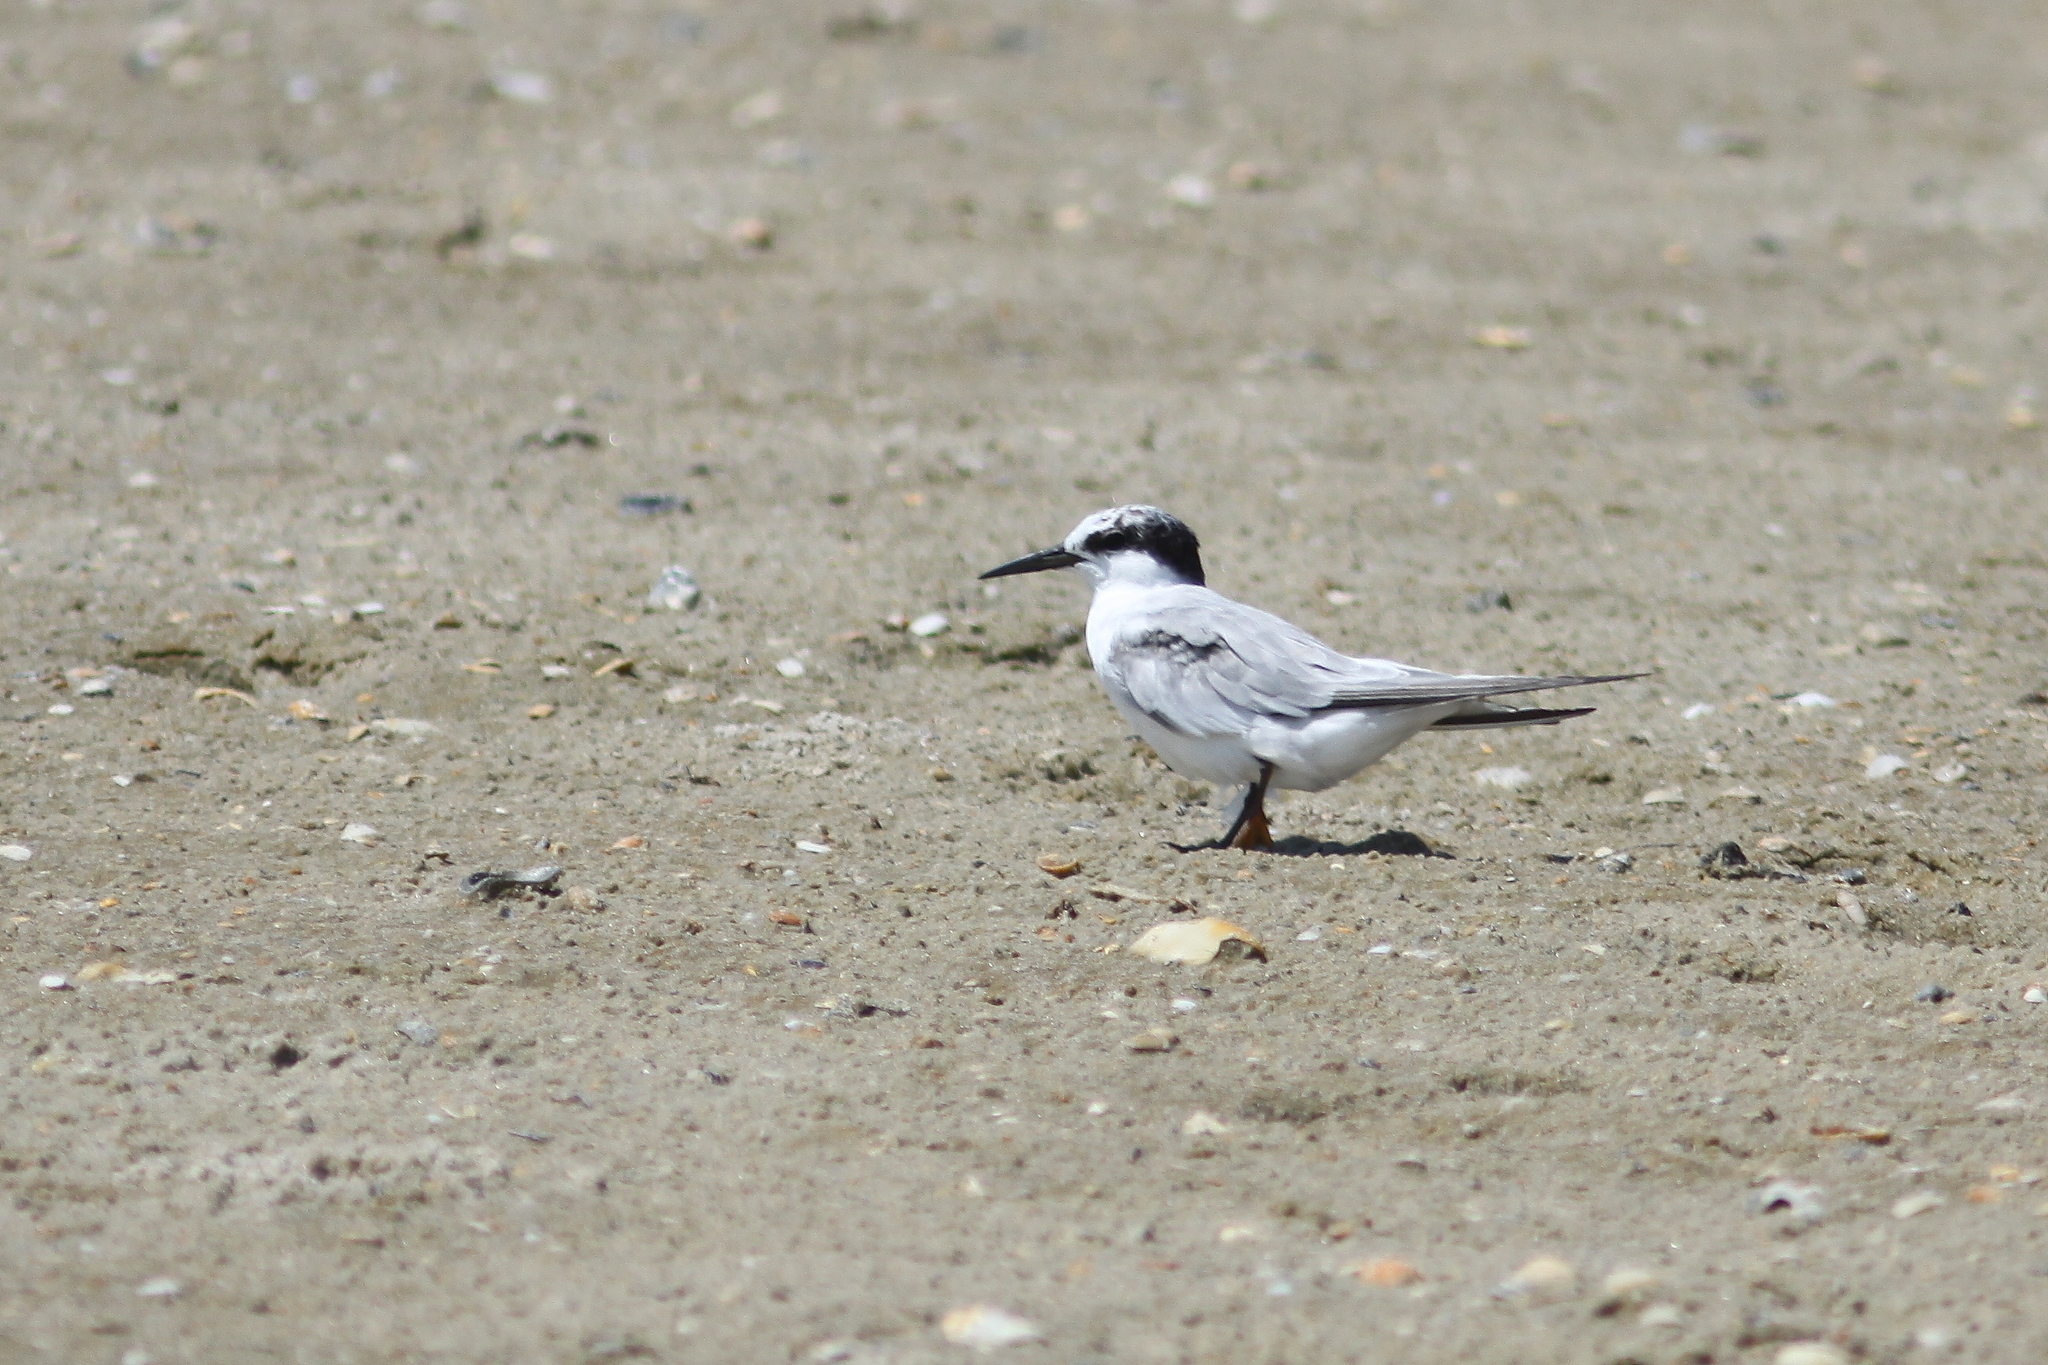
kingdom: Animalia
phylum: Chordata
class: Aves
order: Charadriiformes
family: Laridae
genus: Sternula
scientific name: Sternula antillarum
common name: Least tern
